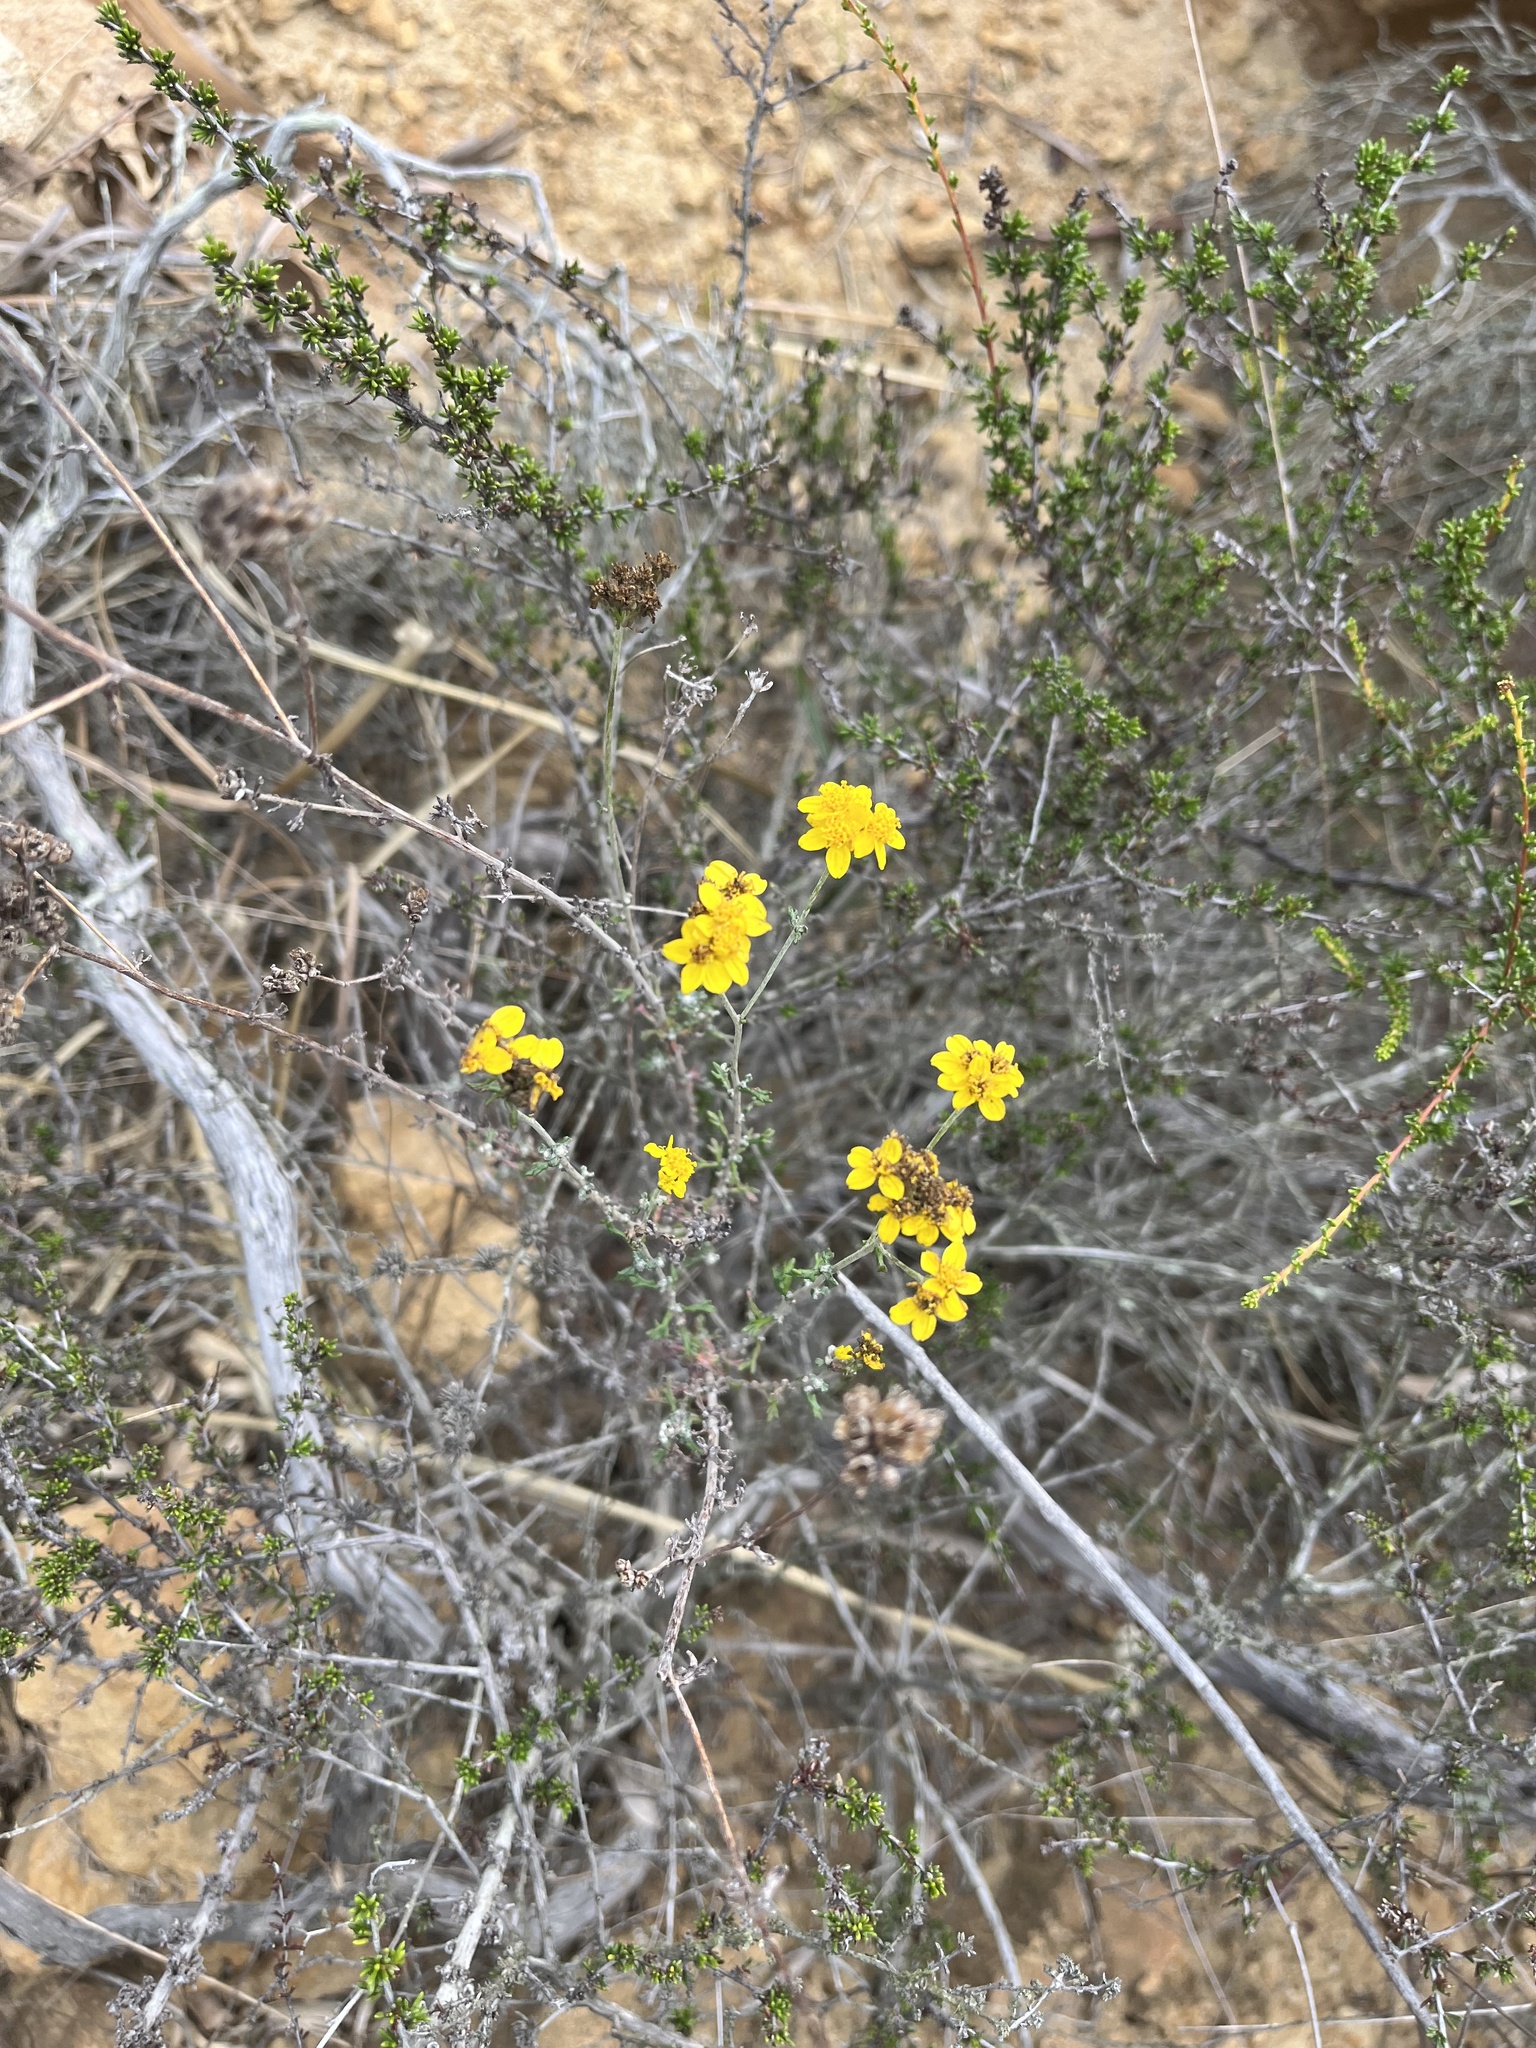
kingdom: Plantae
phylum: Tracheophyta
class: Magnoliopsida
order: Asterales
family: Asteraceae
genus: Eriophyllum
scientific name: Eriophyllum confertiflorum
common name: Golden-yarrow
